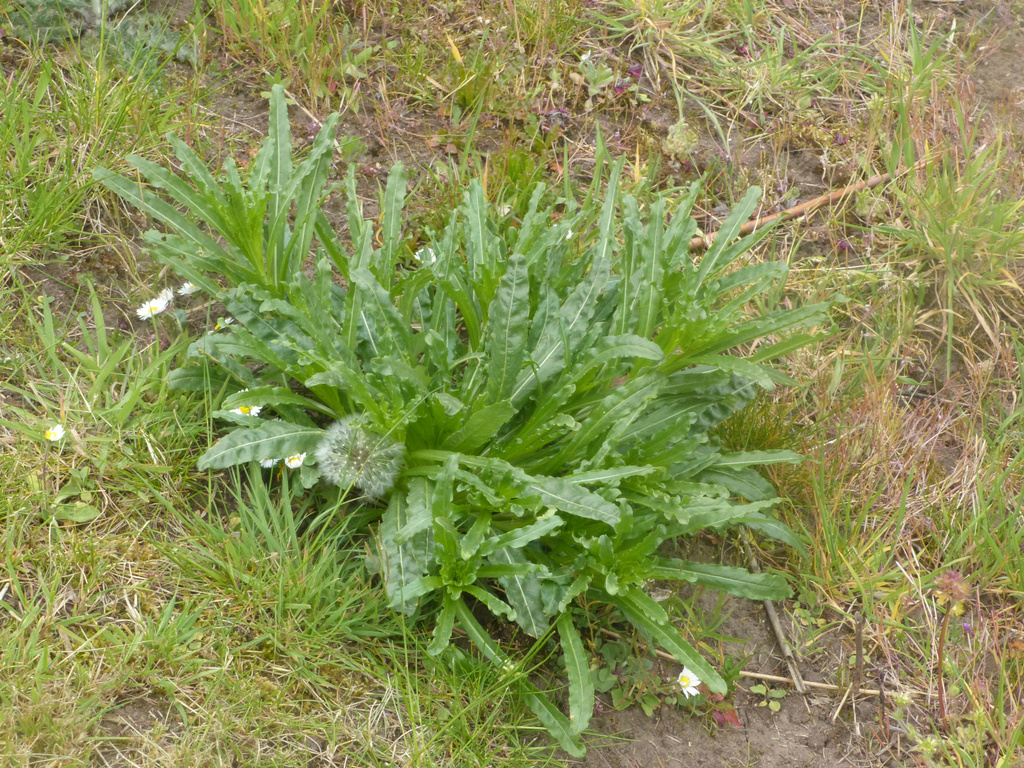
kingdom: Plantae
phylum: Tracheophyta
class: Magnoliopsida
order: Brassicales
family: Resedaceae
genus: Reseda
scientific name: Reseda luteola
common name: Weld
